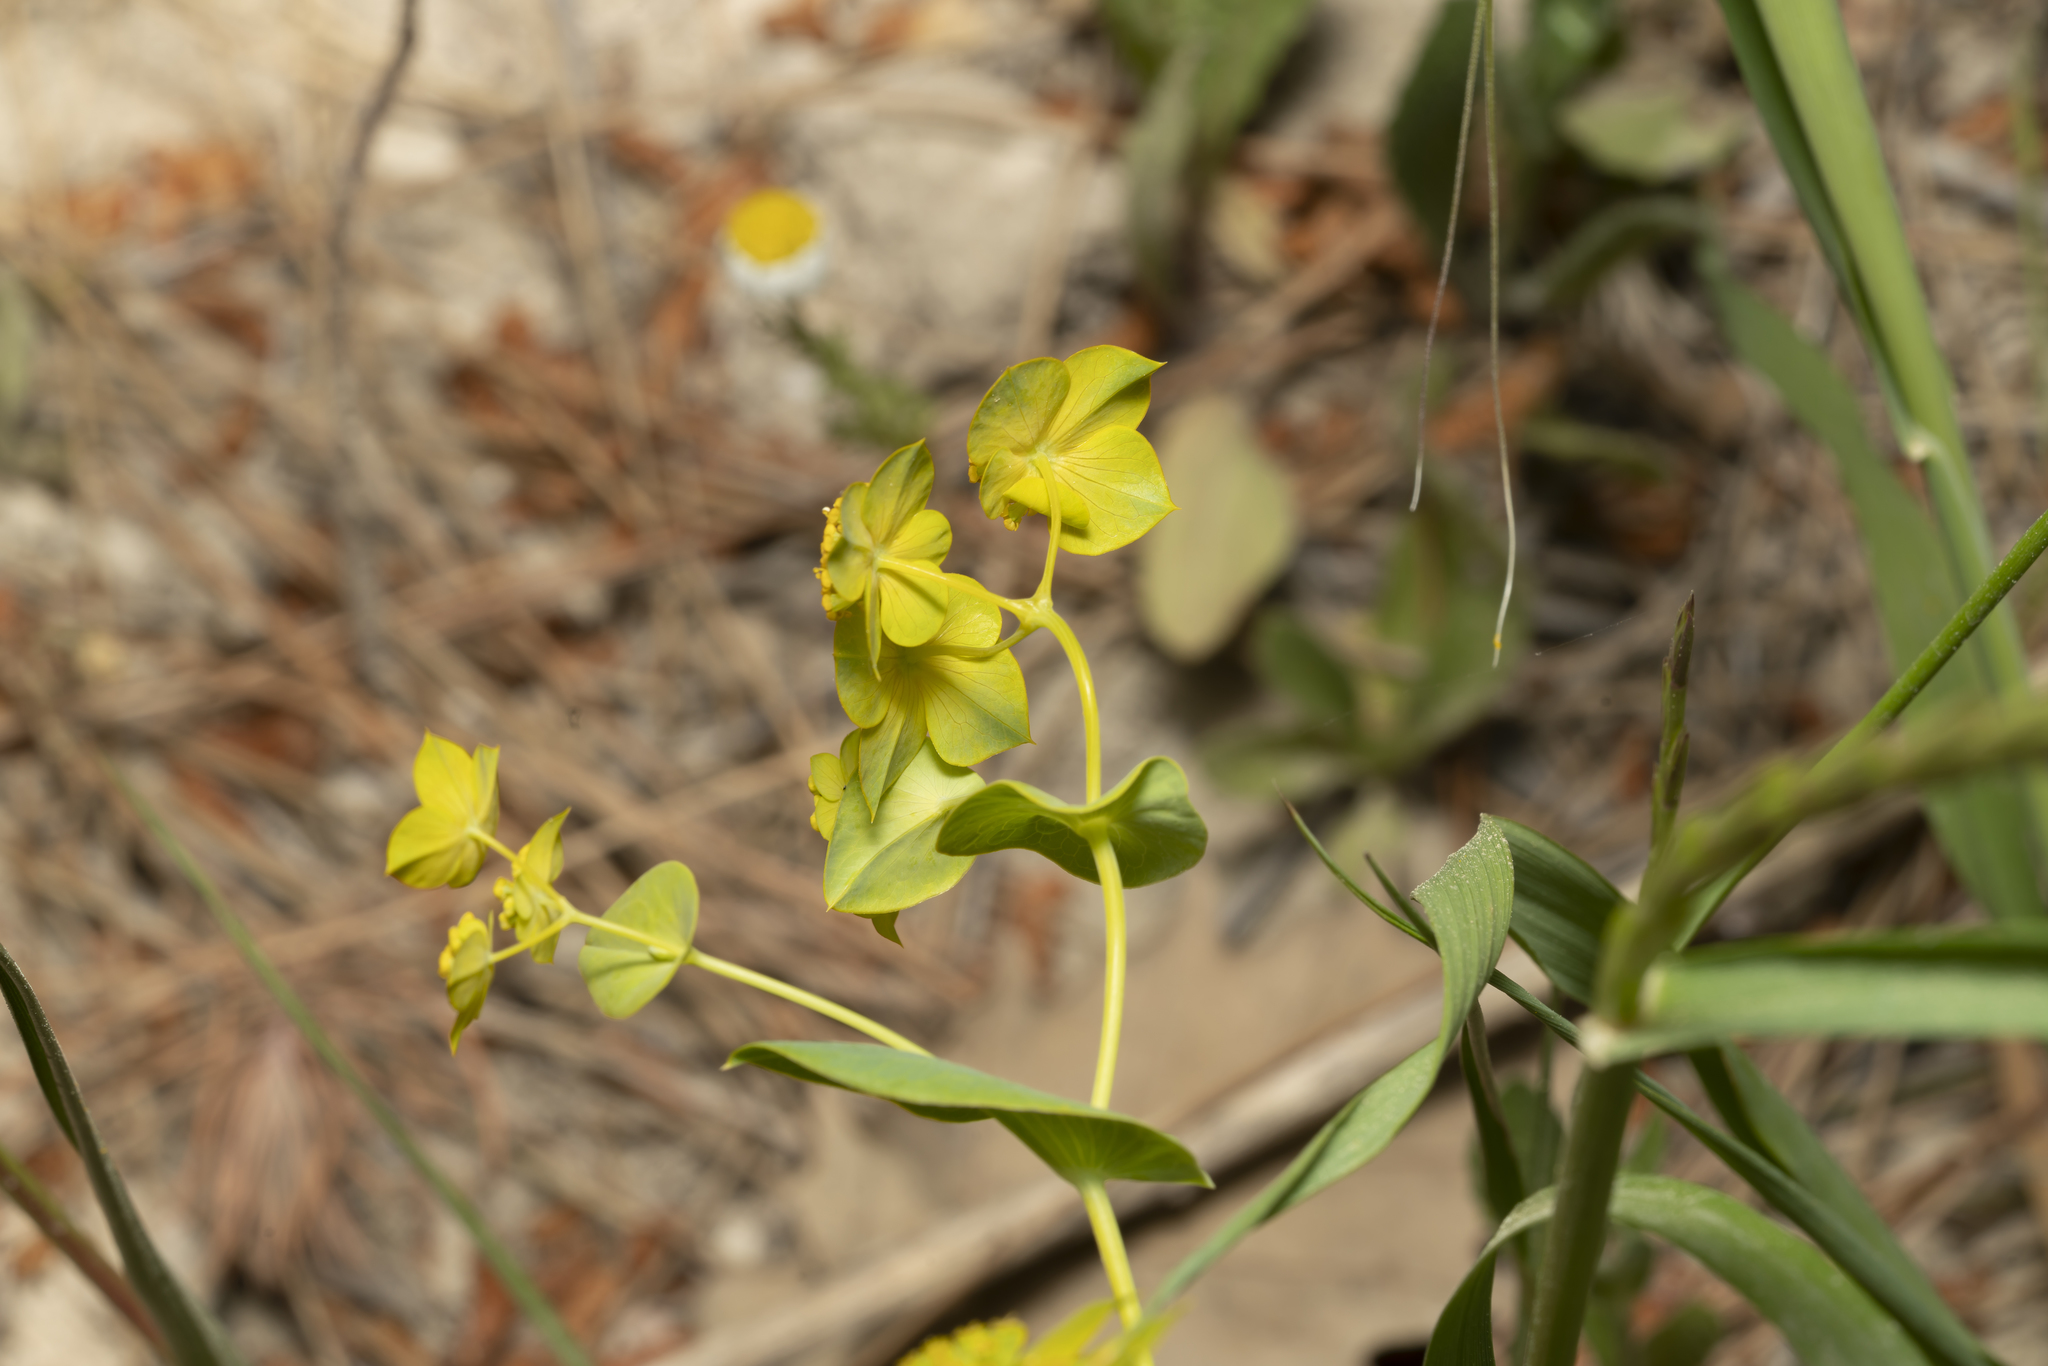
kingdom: Plantae
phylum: Tracheophyta
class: Magnoliopsida
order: Apiales
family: Apiaceae
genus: Bupleurum
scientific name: Bupleurum subovatum
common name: False thorow-wax
